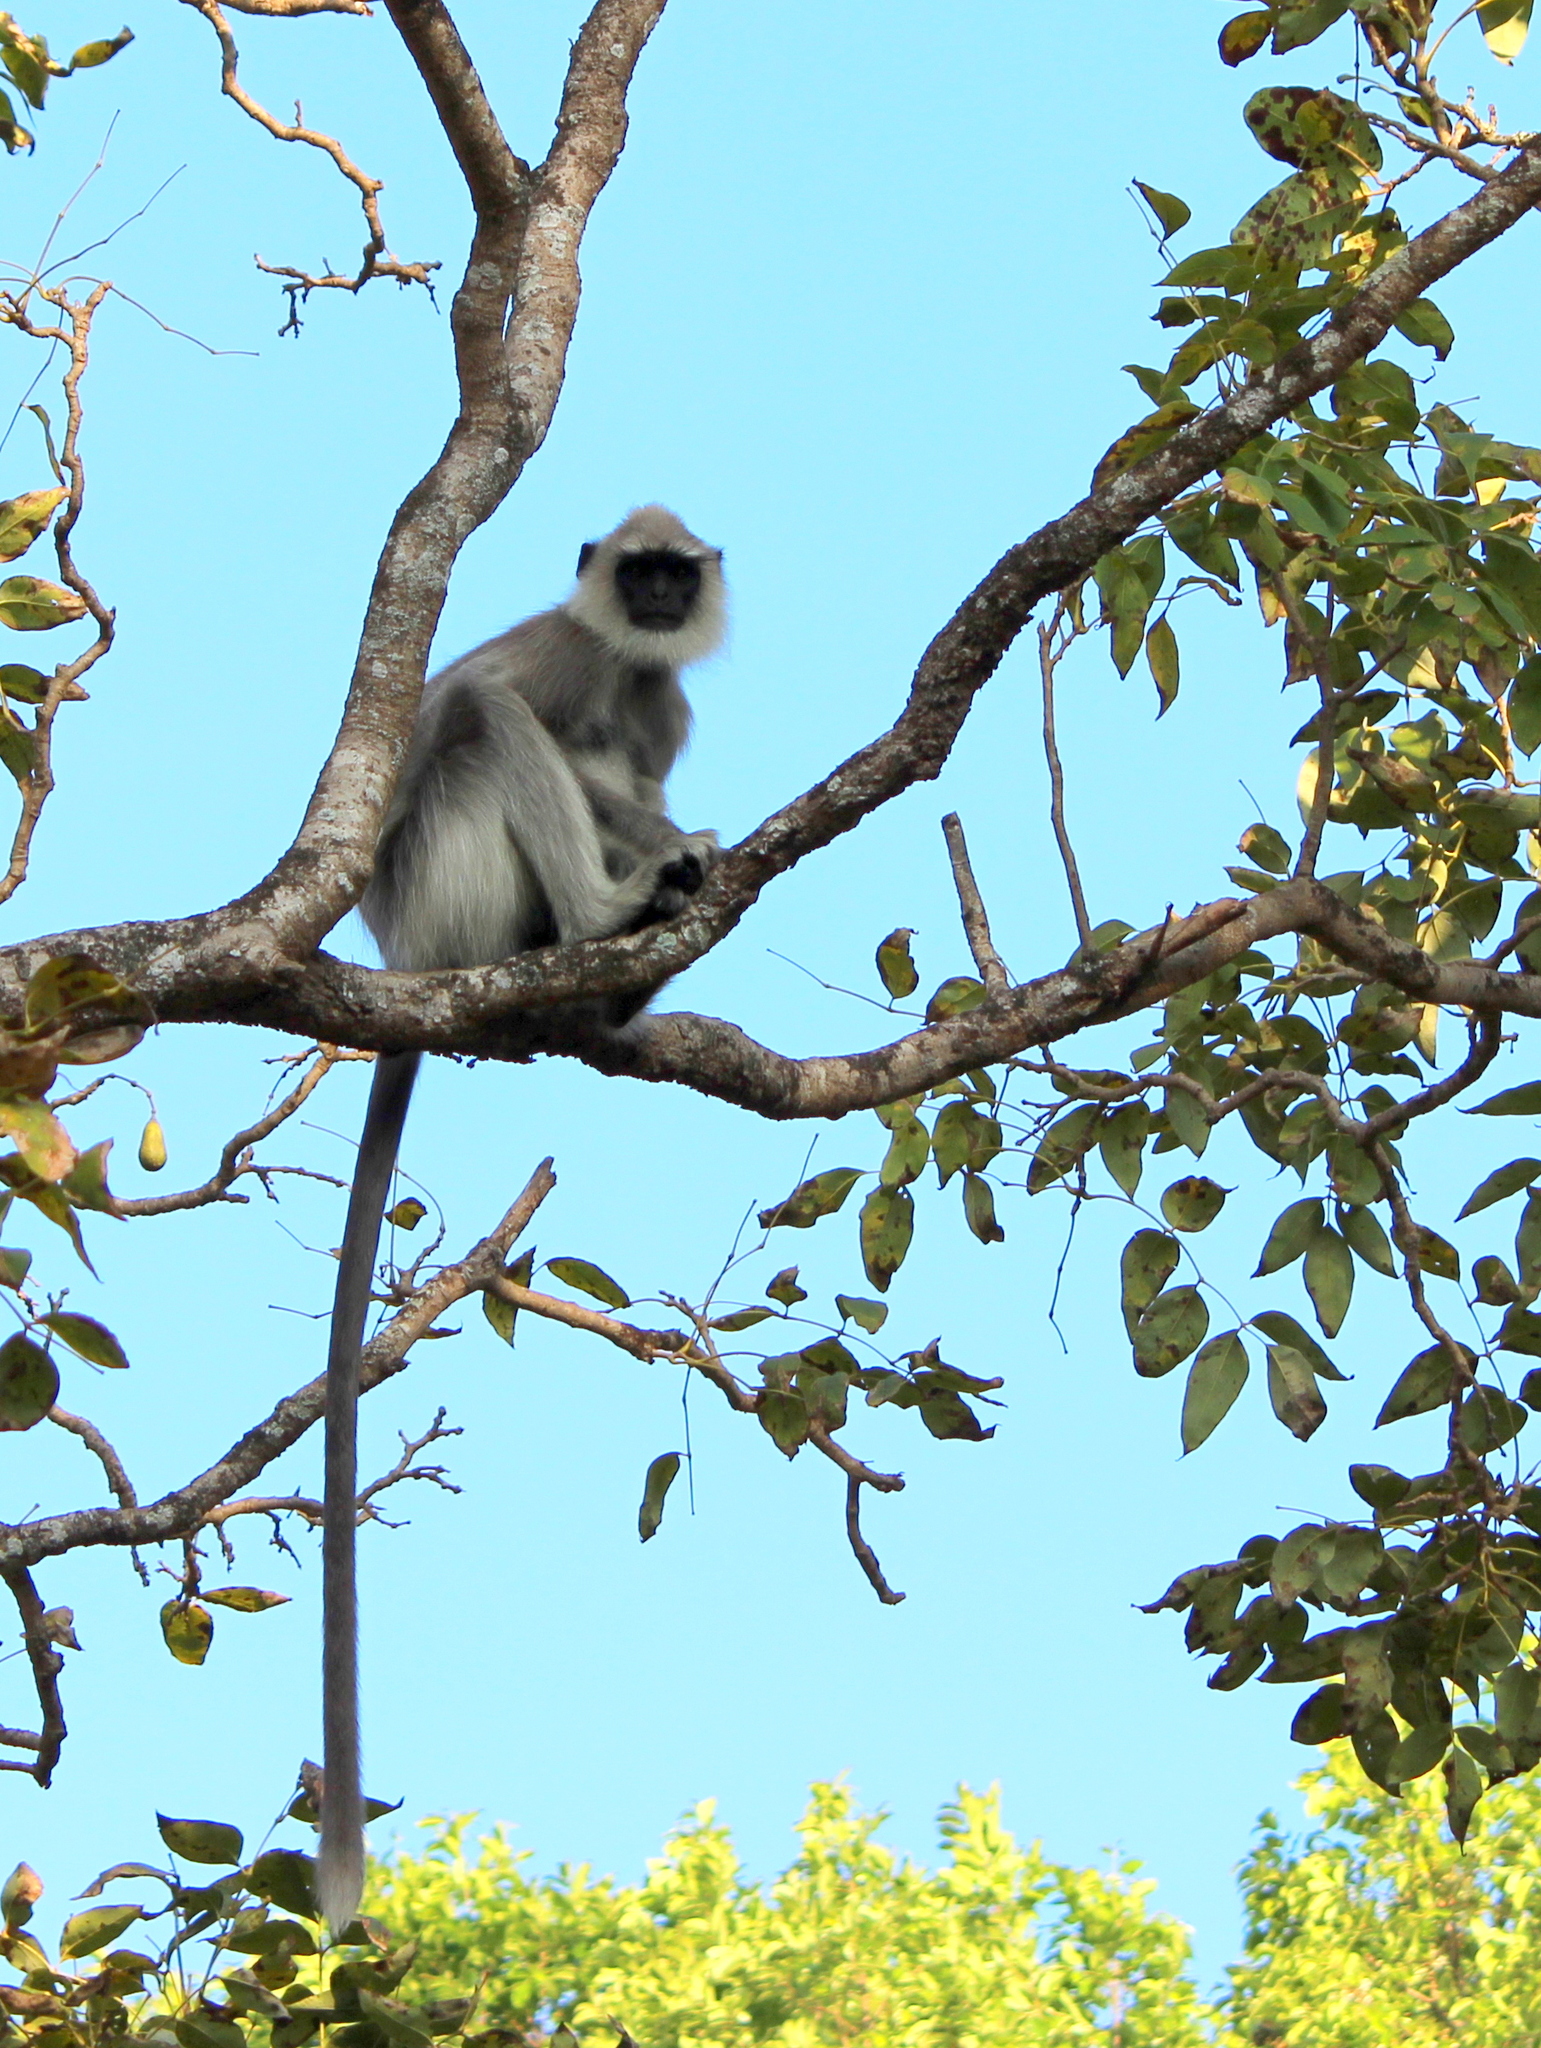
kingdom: Animalia
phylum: Chordata
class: Mammalia
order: Primates
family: Cercopithecidae
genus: Semnopithecus
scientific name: Semnopithecus priam
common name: Tufted gray langur
